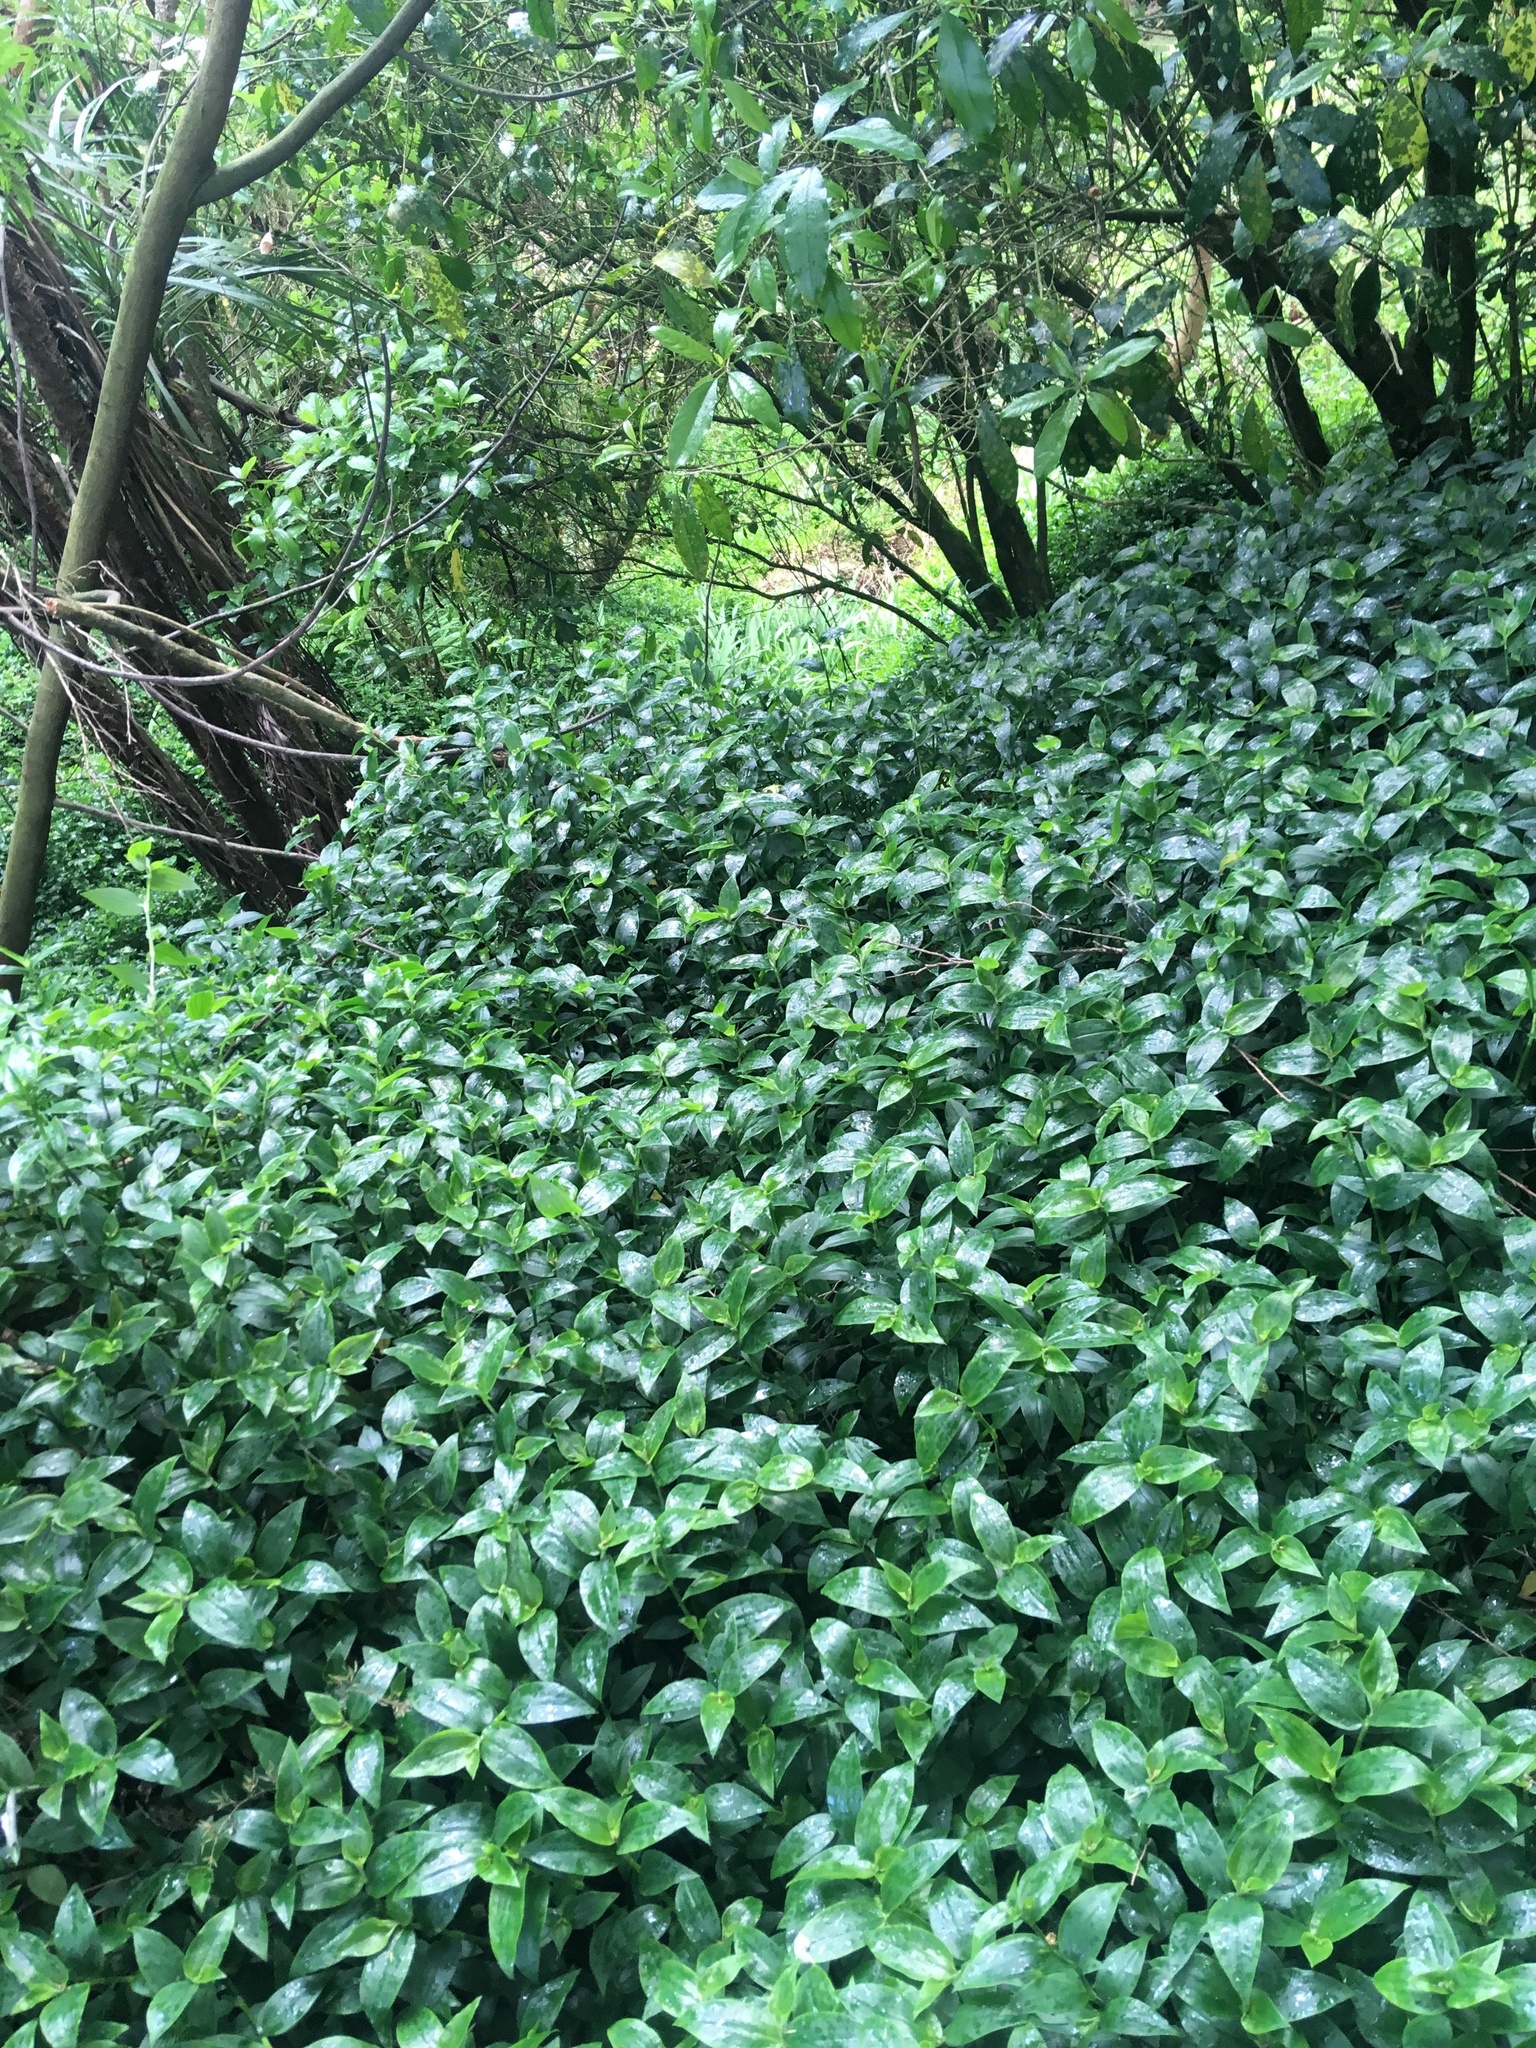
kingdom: Plantae
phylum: Tracheophyta
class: Liliopsida
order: Commelinales
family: Commelinaceae
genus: Tradescantia
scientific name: Tradescantia fluminensis
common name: Wandering-jew
